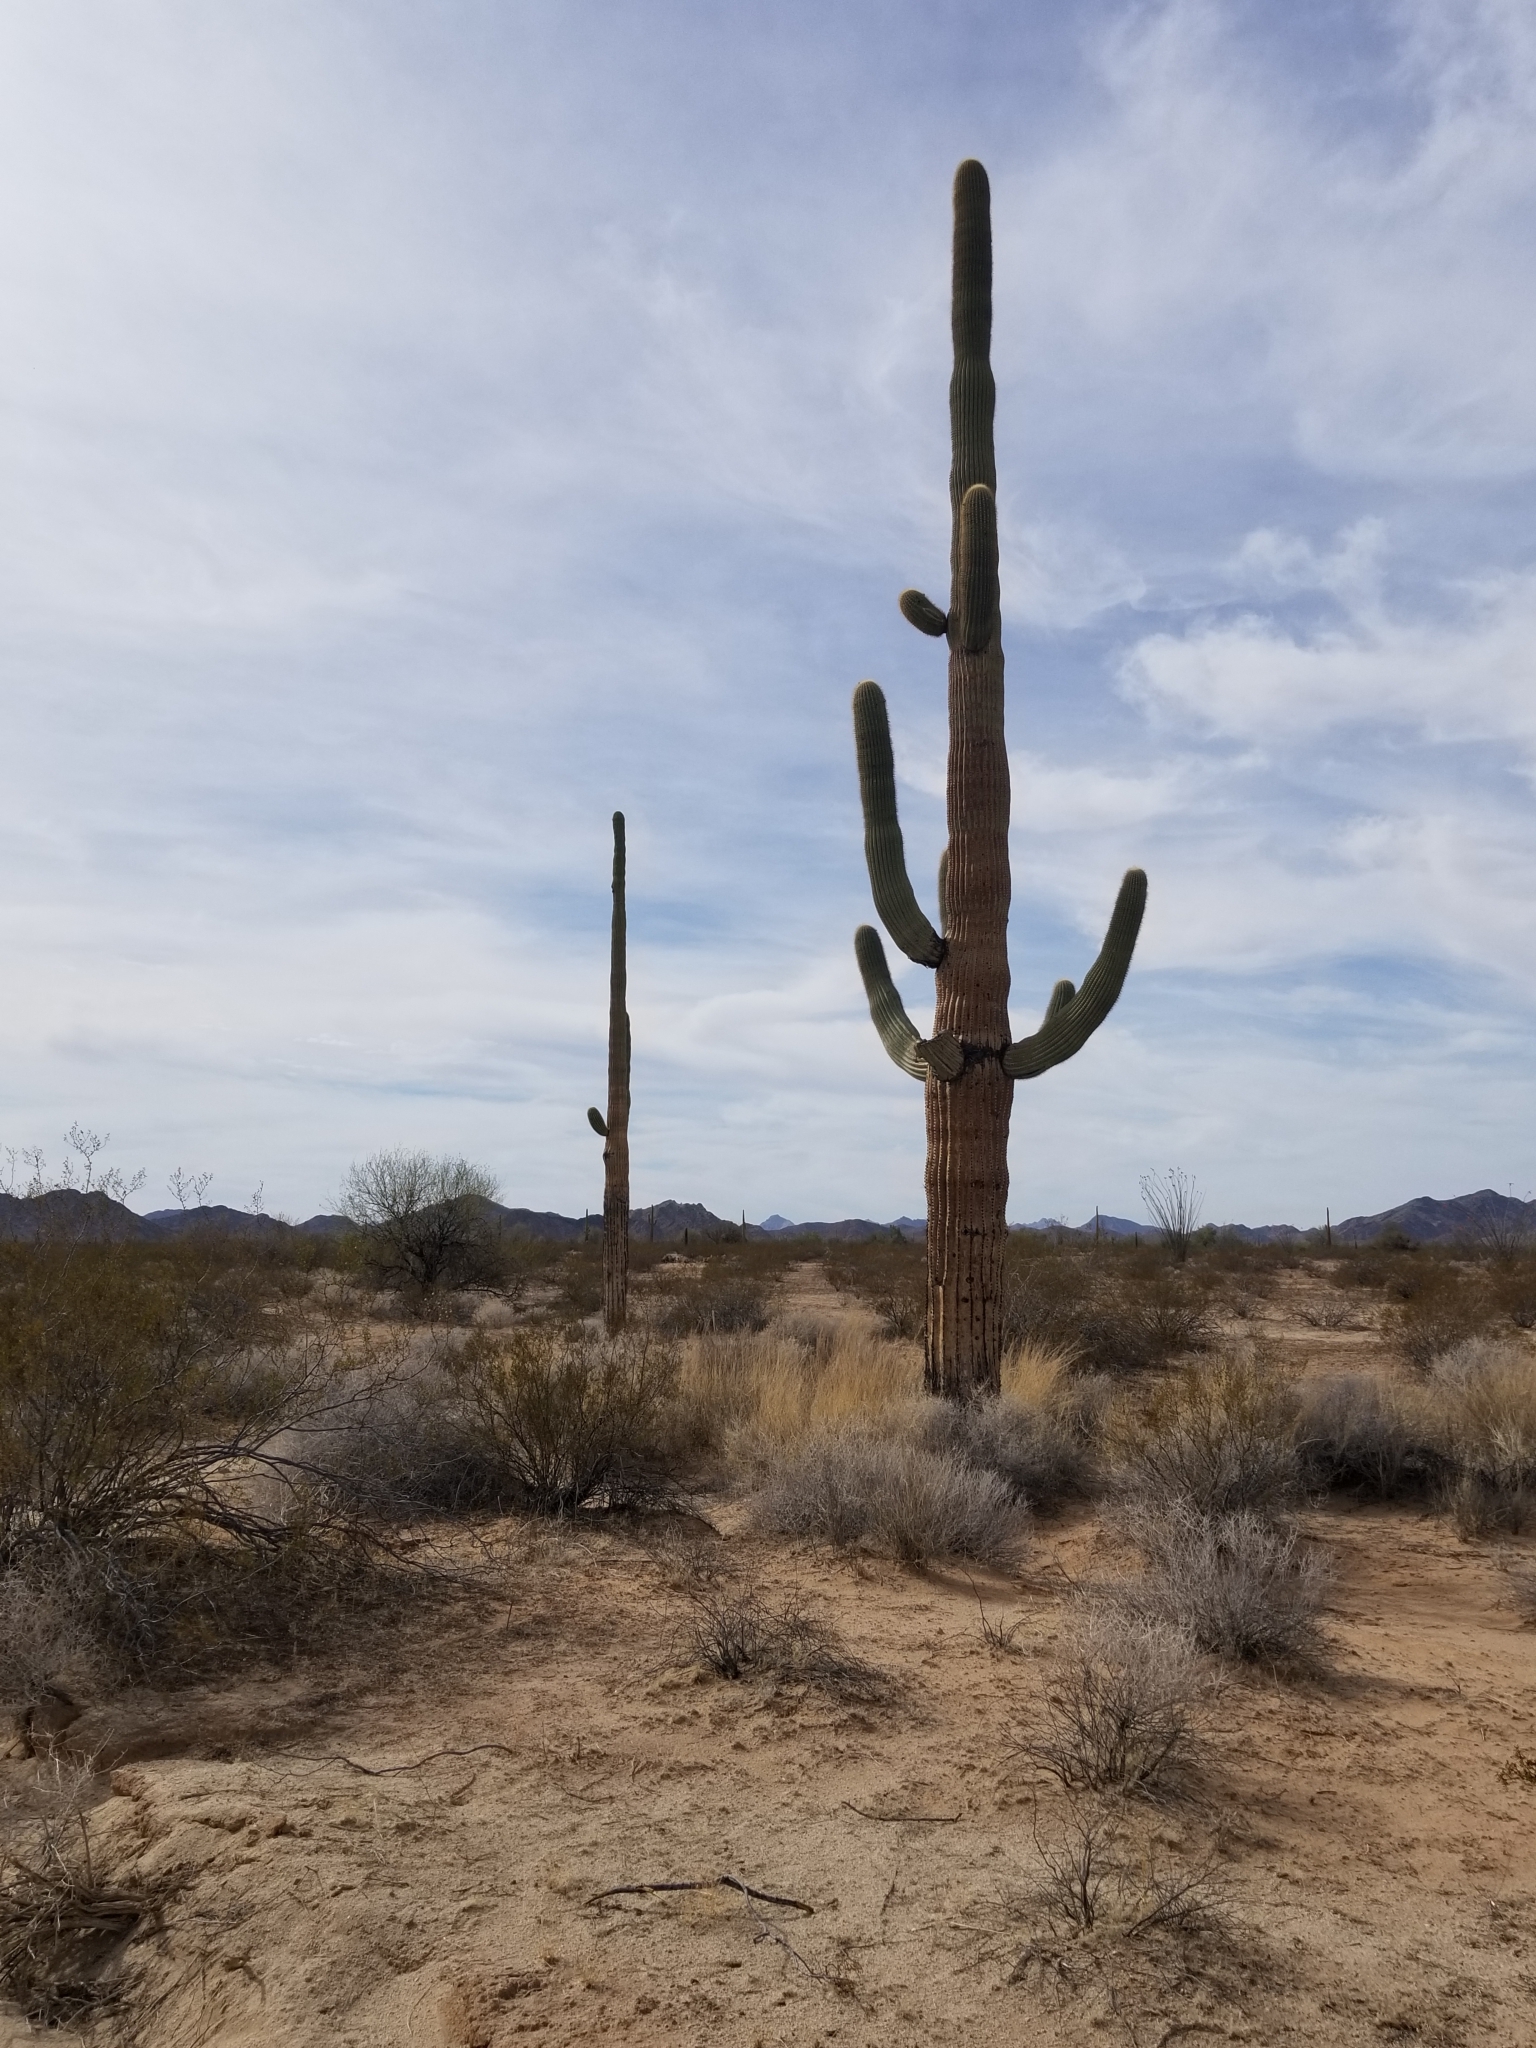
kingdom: Plantae
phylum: Tracheophyta
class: Magnoliopsida
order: Caryophyllales
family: Cactaceae
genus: Carnegiea
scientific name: Carnegiea gigantea
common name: Saguaro
